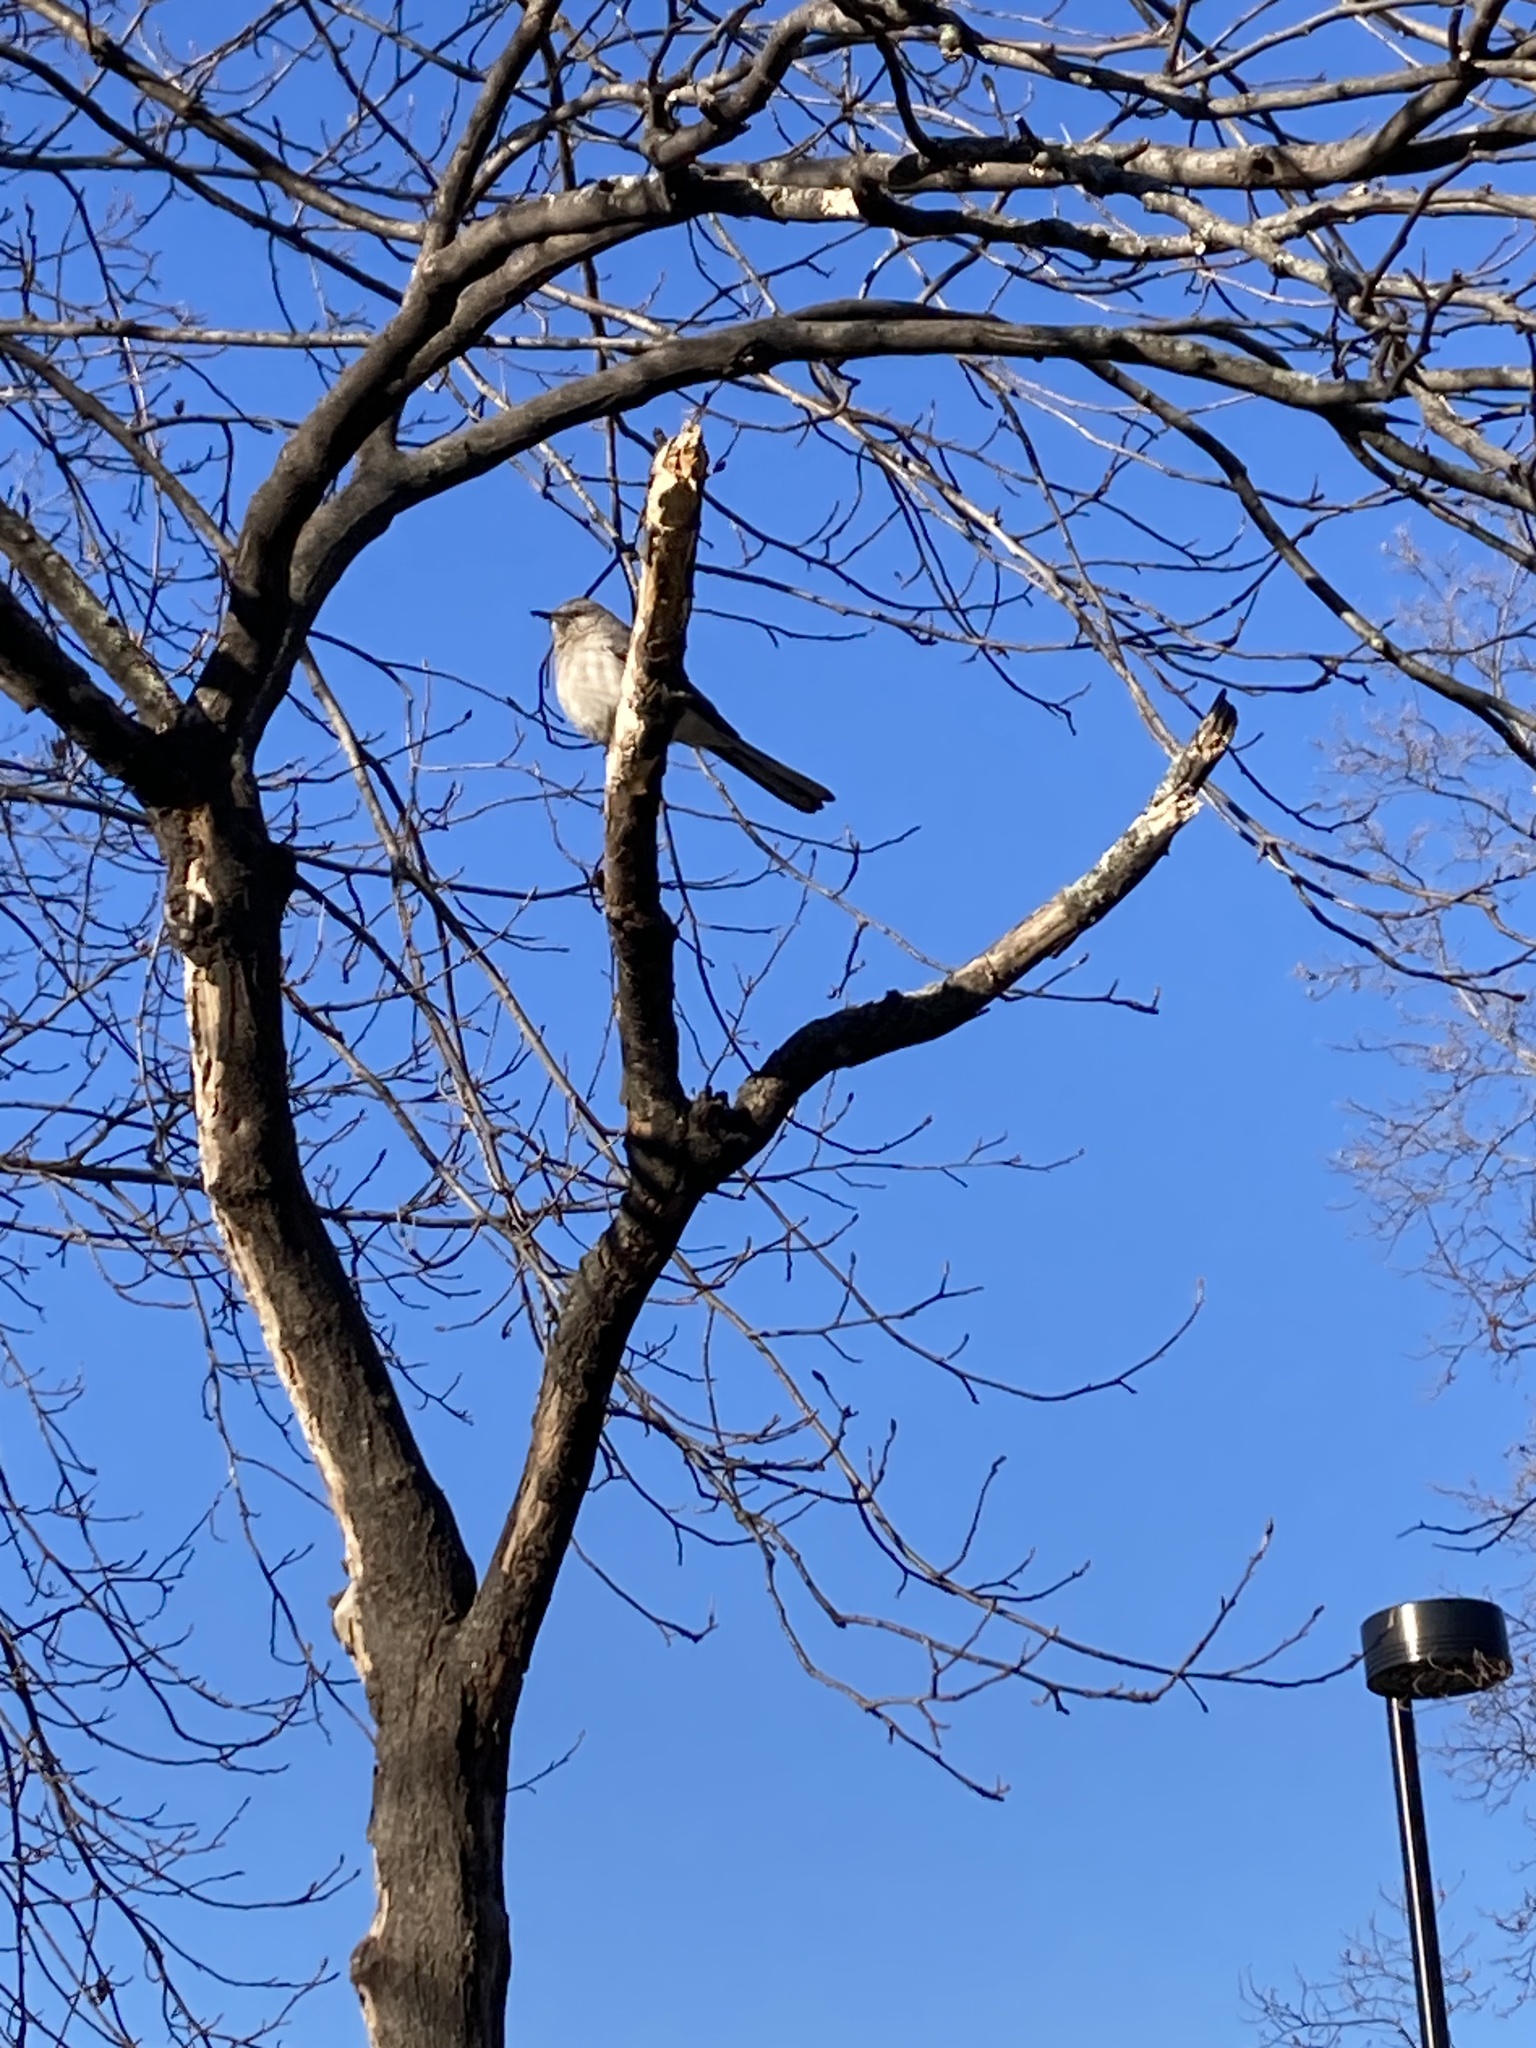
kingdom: Animalia
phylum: Chordata
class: Aves
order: Passeriformes
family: Mimidae
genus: Mimus
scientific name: Mimus polyglottos
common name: Northern mockingbird
